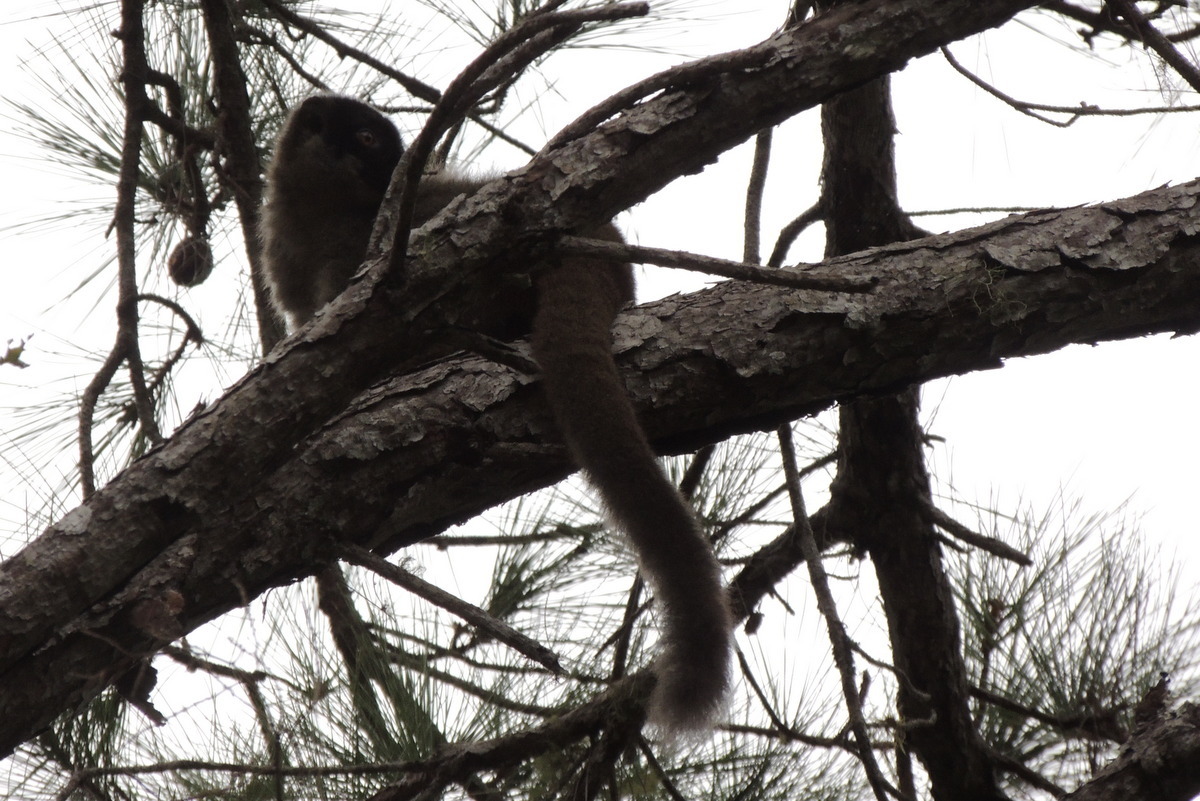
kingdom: Animalia
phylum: Chordata
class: Mammalia
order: Primates
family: Lemuridae
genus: Eulemur
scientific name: Eulemur fulvus
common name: Brown lemur
